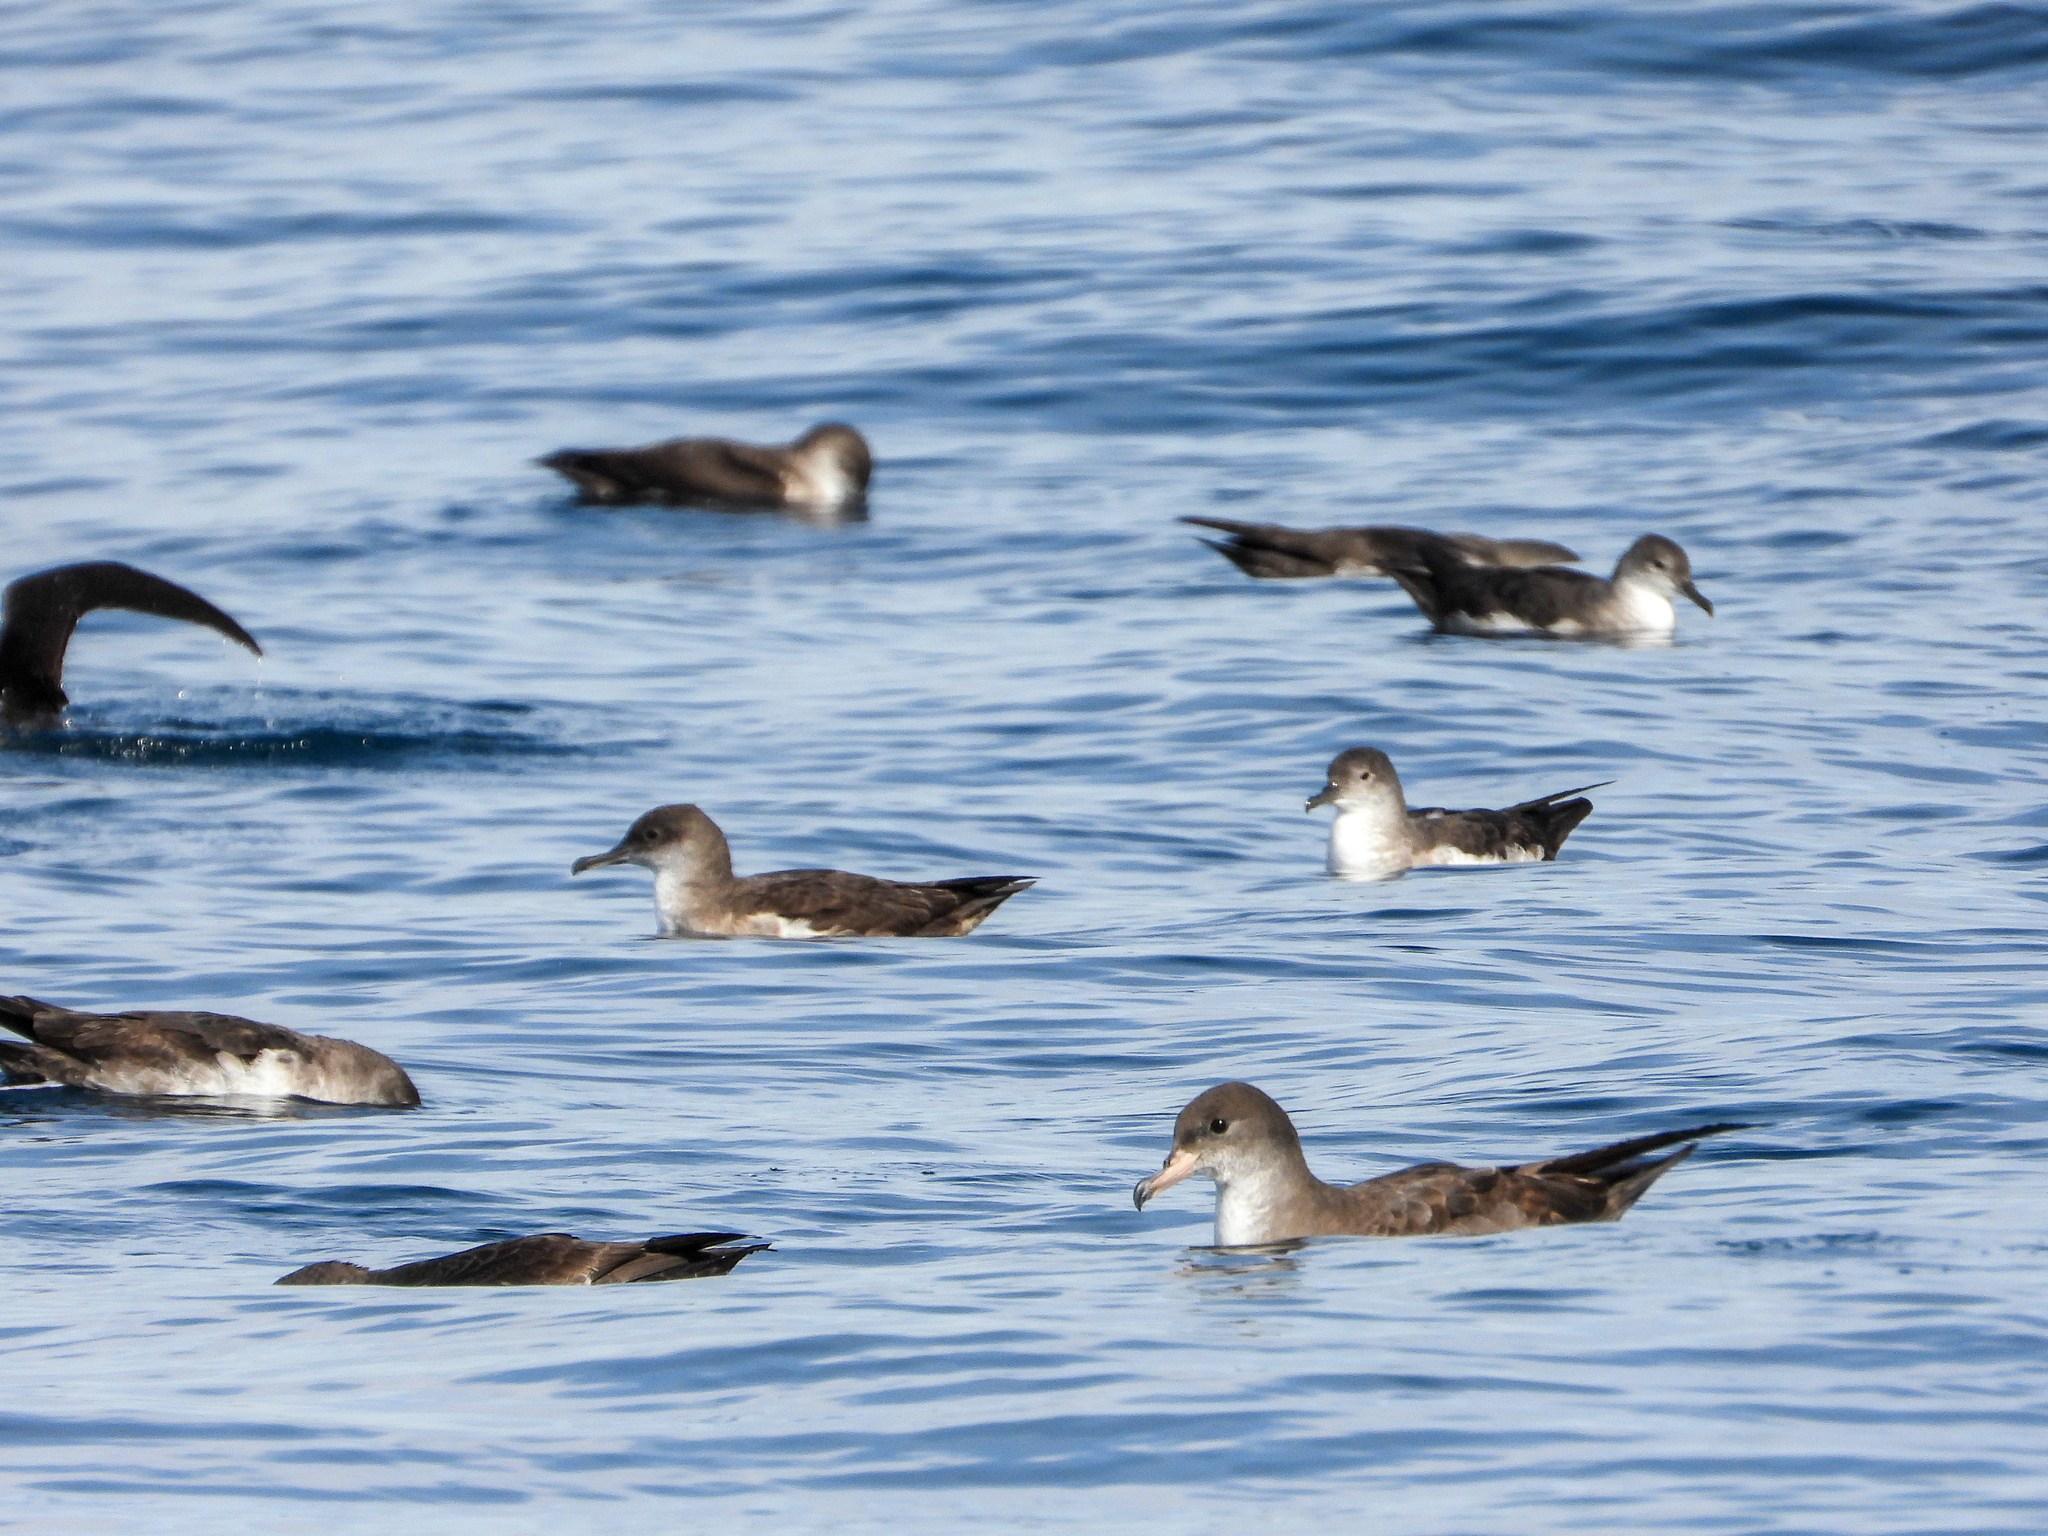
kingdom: Animalia
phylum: Chordata
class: Aves
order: Procellariiformes
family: Procellariidae
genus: Puffinus
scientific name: Puffinus creatopus
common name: Pink-footed shearwater
